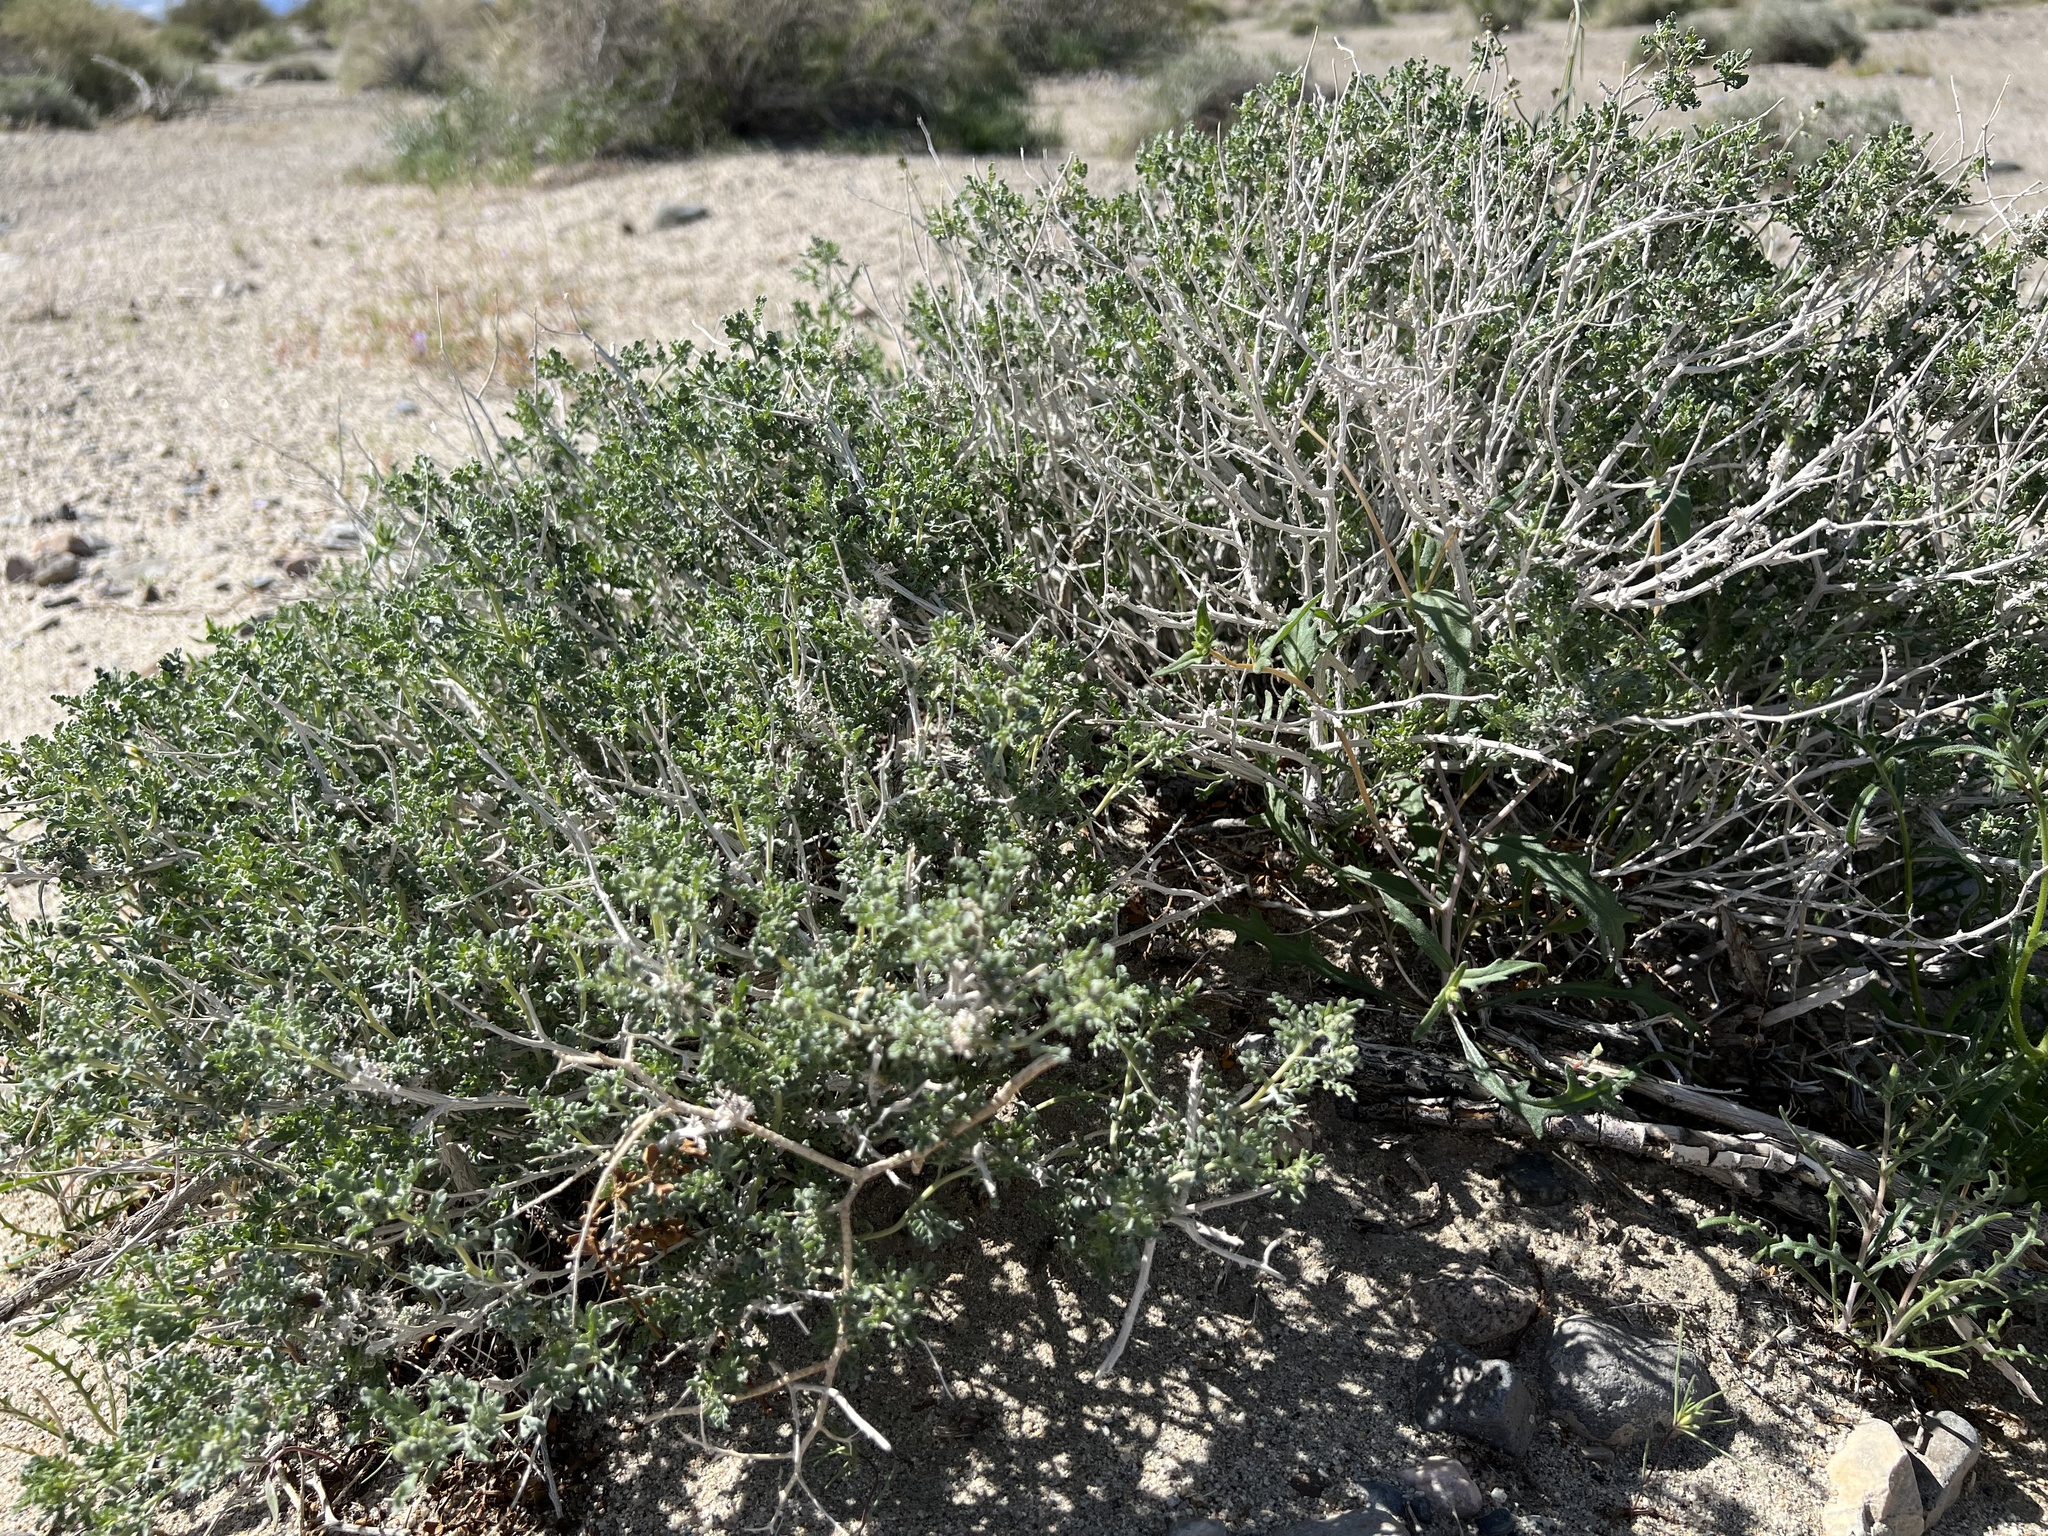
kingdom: Plantae
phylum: Tracheophyta
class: Magnoliopsida
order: Asterales
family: Asteraceae
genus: Ambrosia
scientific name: Ambrosia dumosa
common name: Bur-sage
